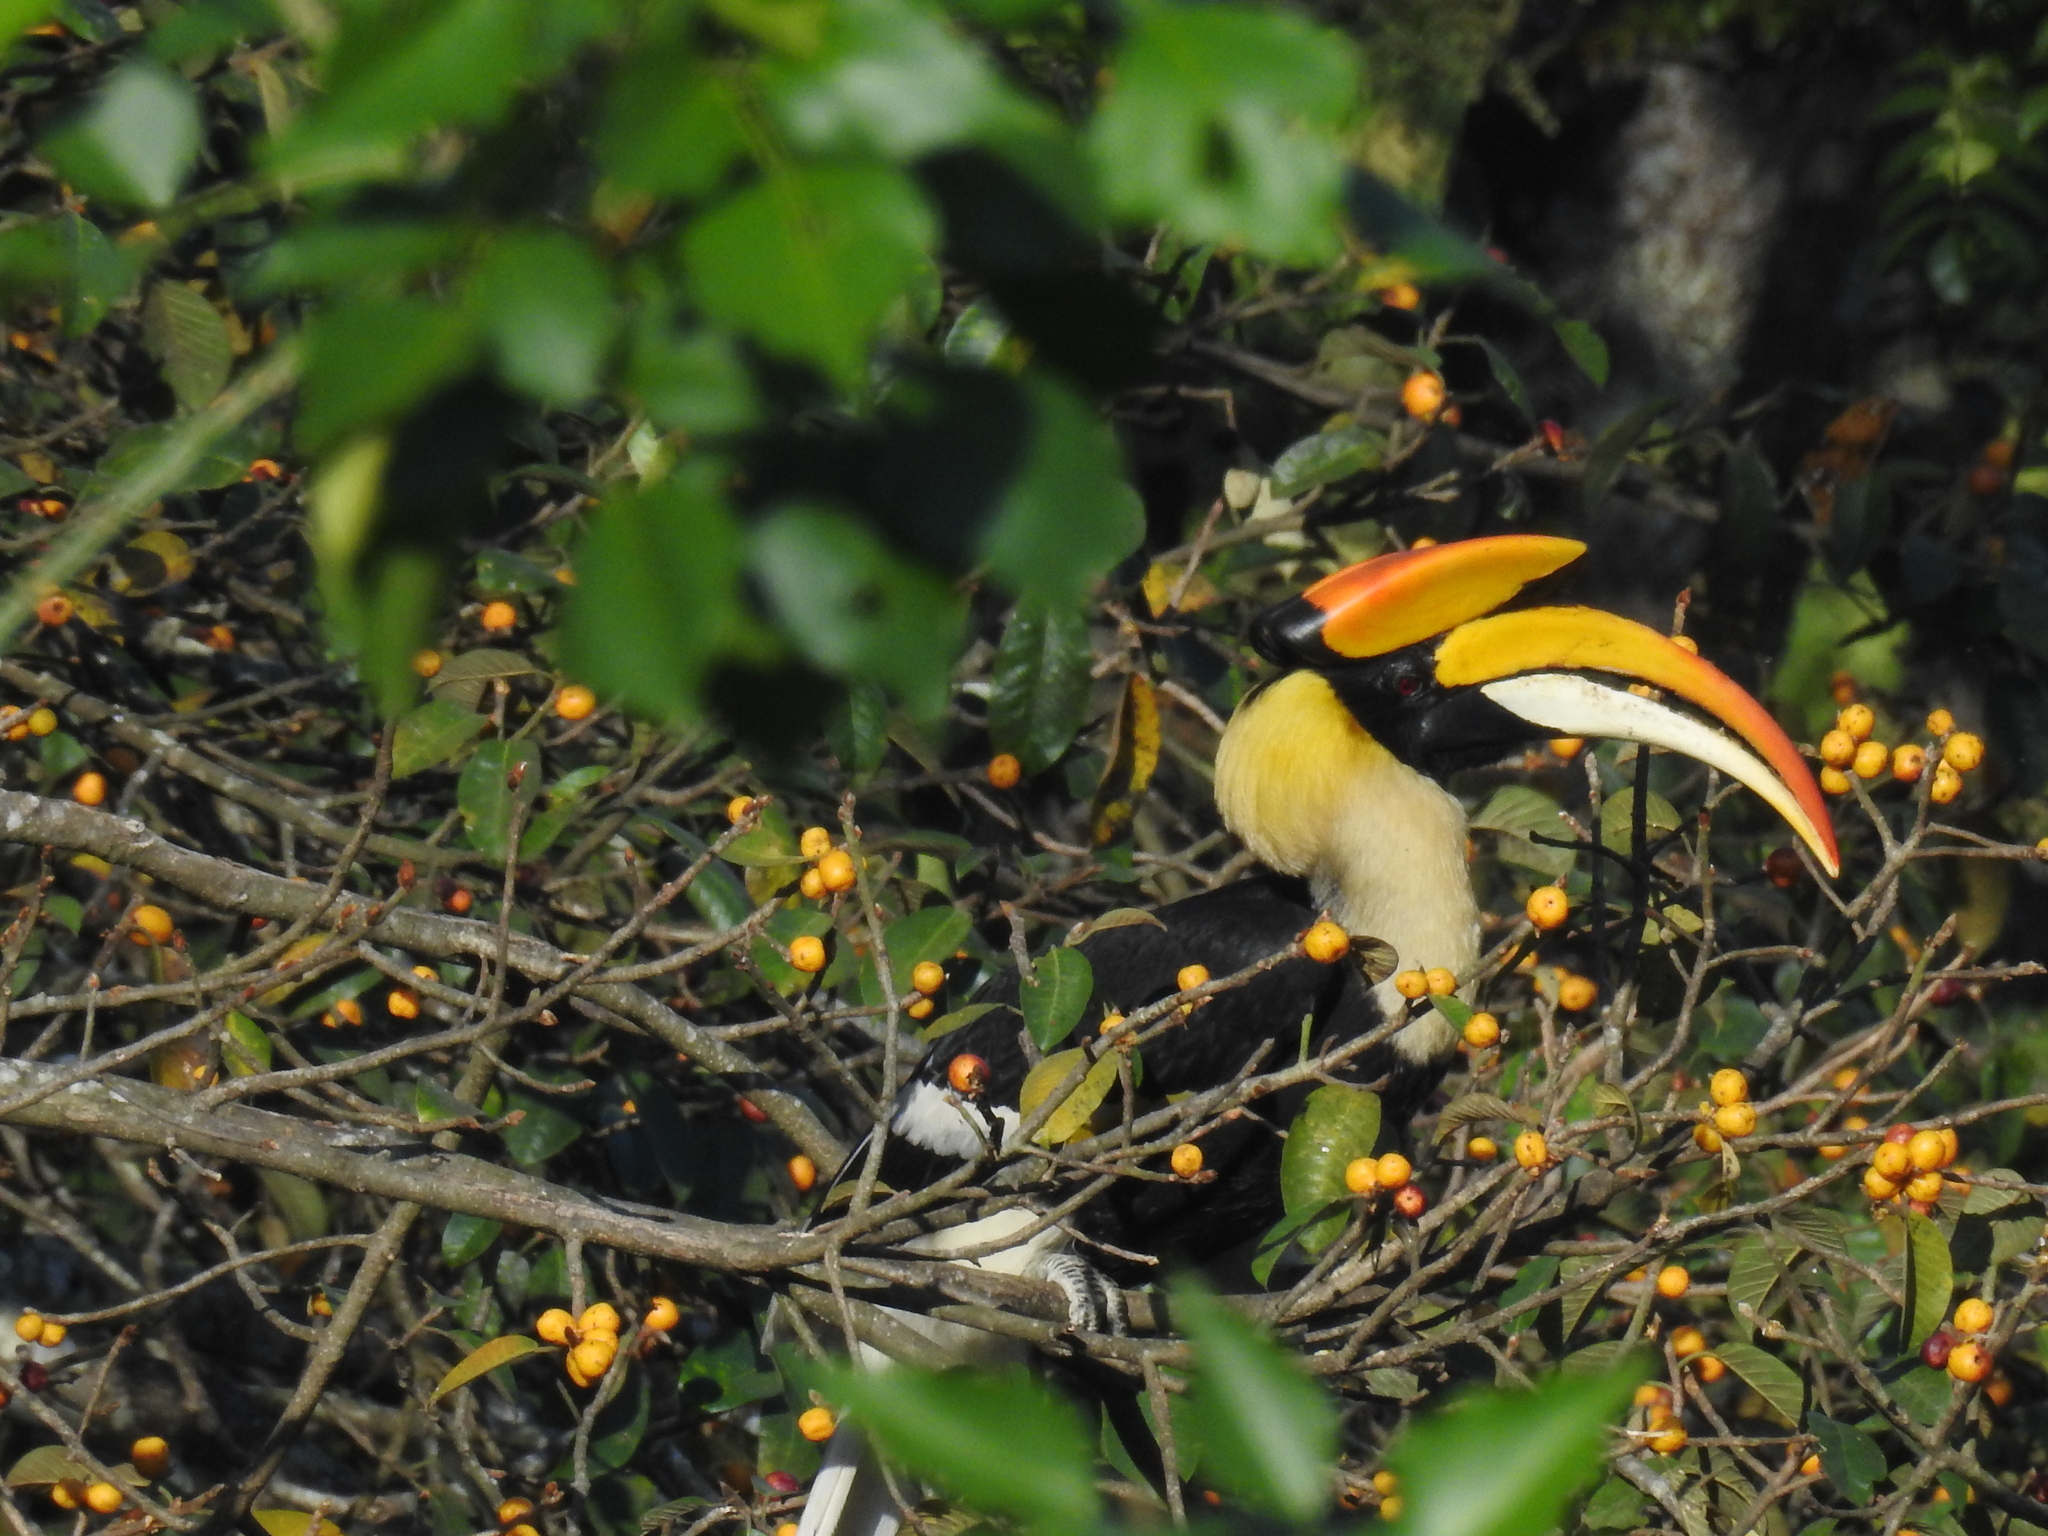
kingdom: Animalia
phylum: Chordata
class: Aves
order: Bucerotiformes
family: Bucerotidae
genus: Buceros
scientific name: Buceros bicornis
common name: Great hornbill
